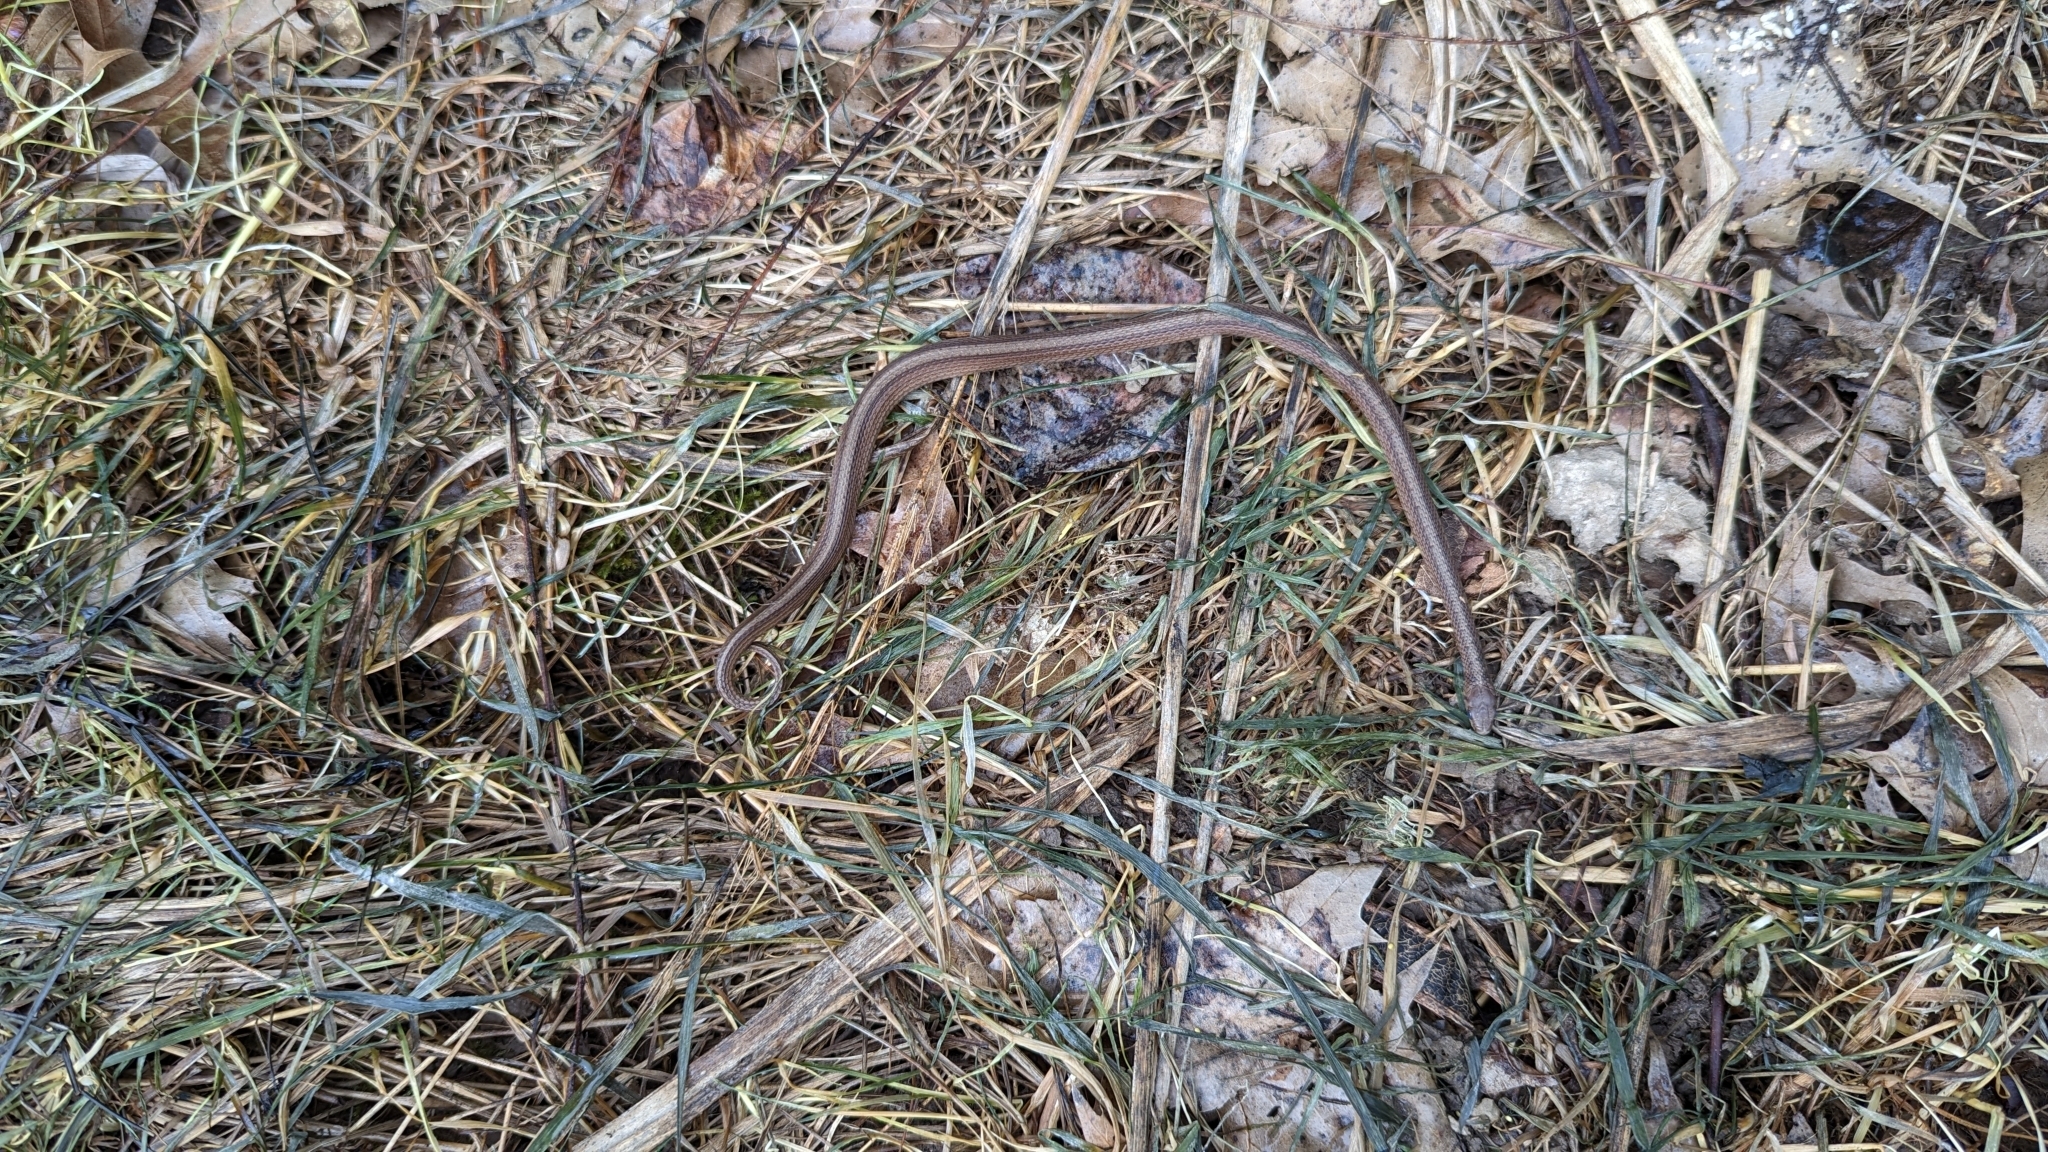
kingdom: Animalia
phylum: Chordata
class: Squamata
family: Colubridae
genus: Storeria
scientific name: Storeria dekayi
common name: (dekay’s) brown snake
